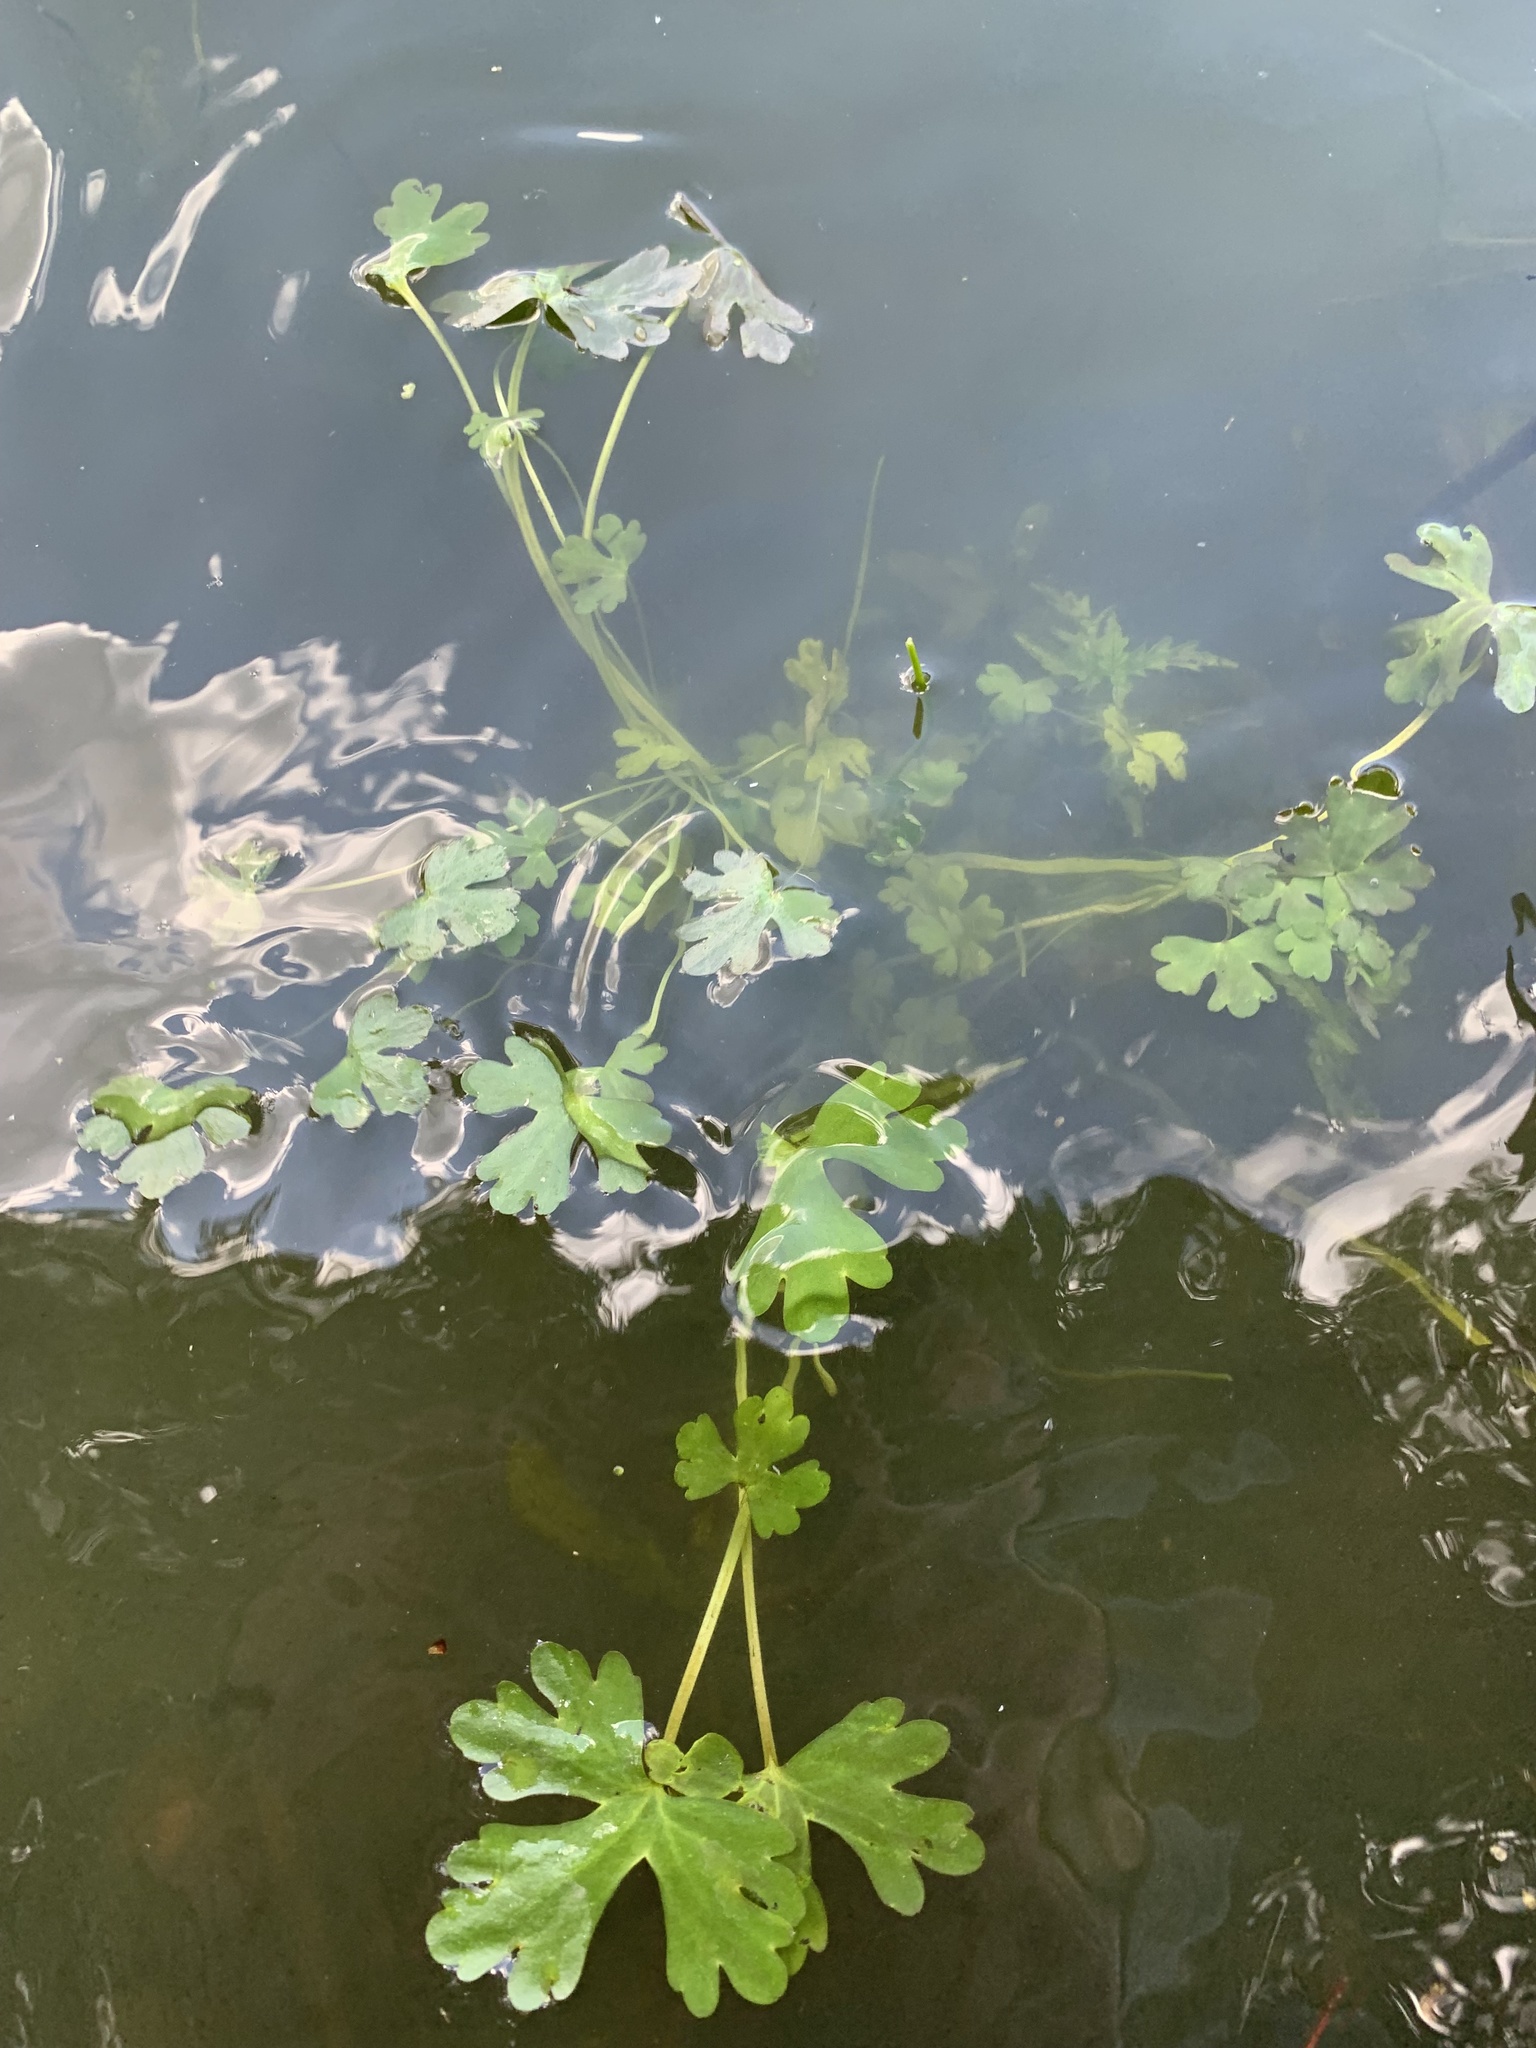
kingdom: Plantae
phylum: Tracheophyta
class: Magnoliopsida
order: Ranunculales
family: Ranunculaceae
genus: Ranunculus
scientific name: Ranunculus sceleratus
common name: Celery-leaved buttercup
